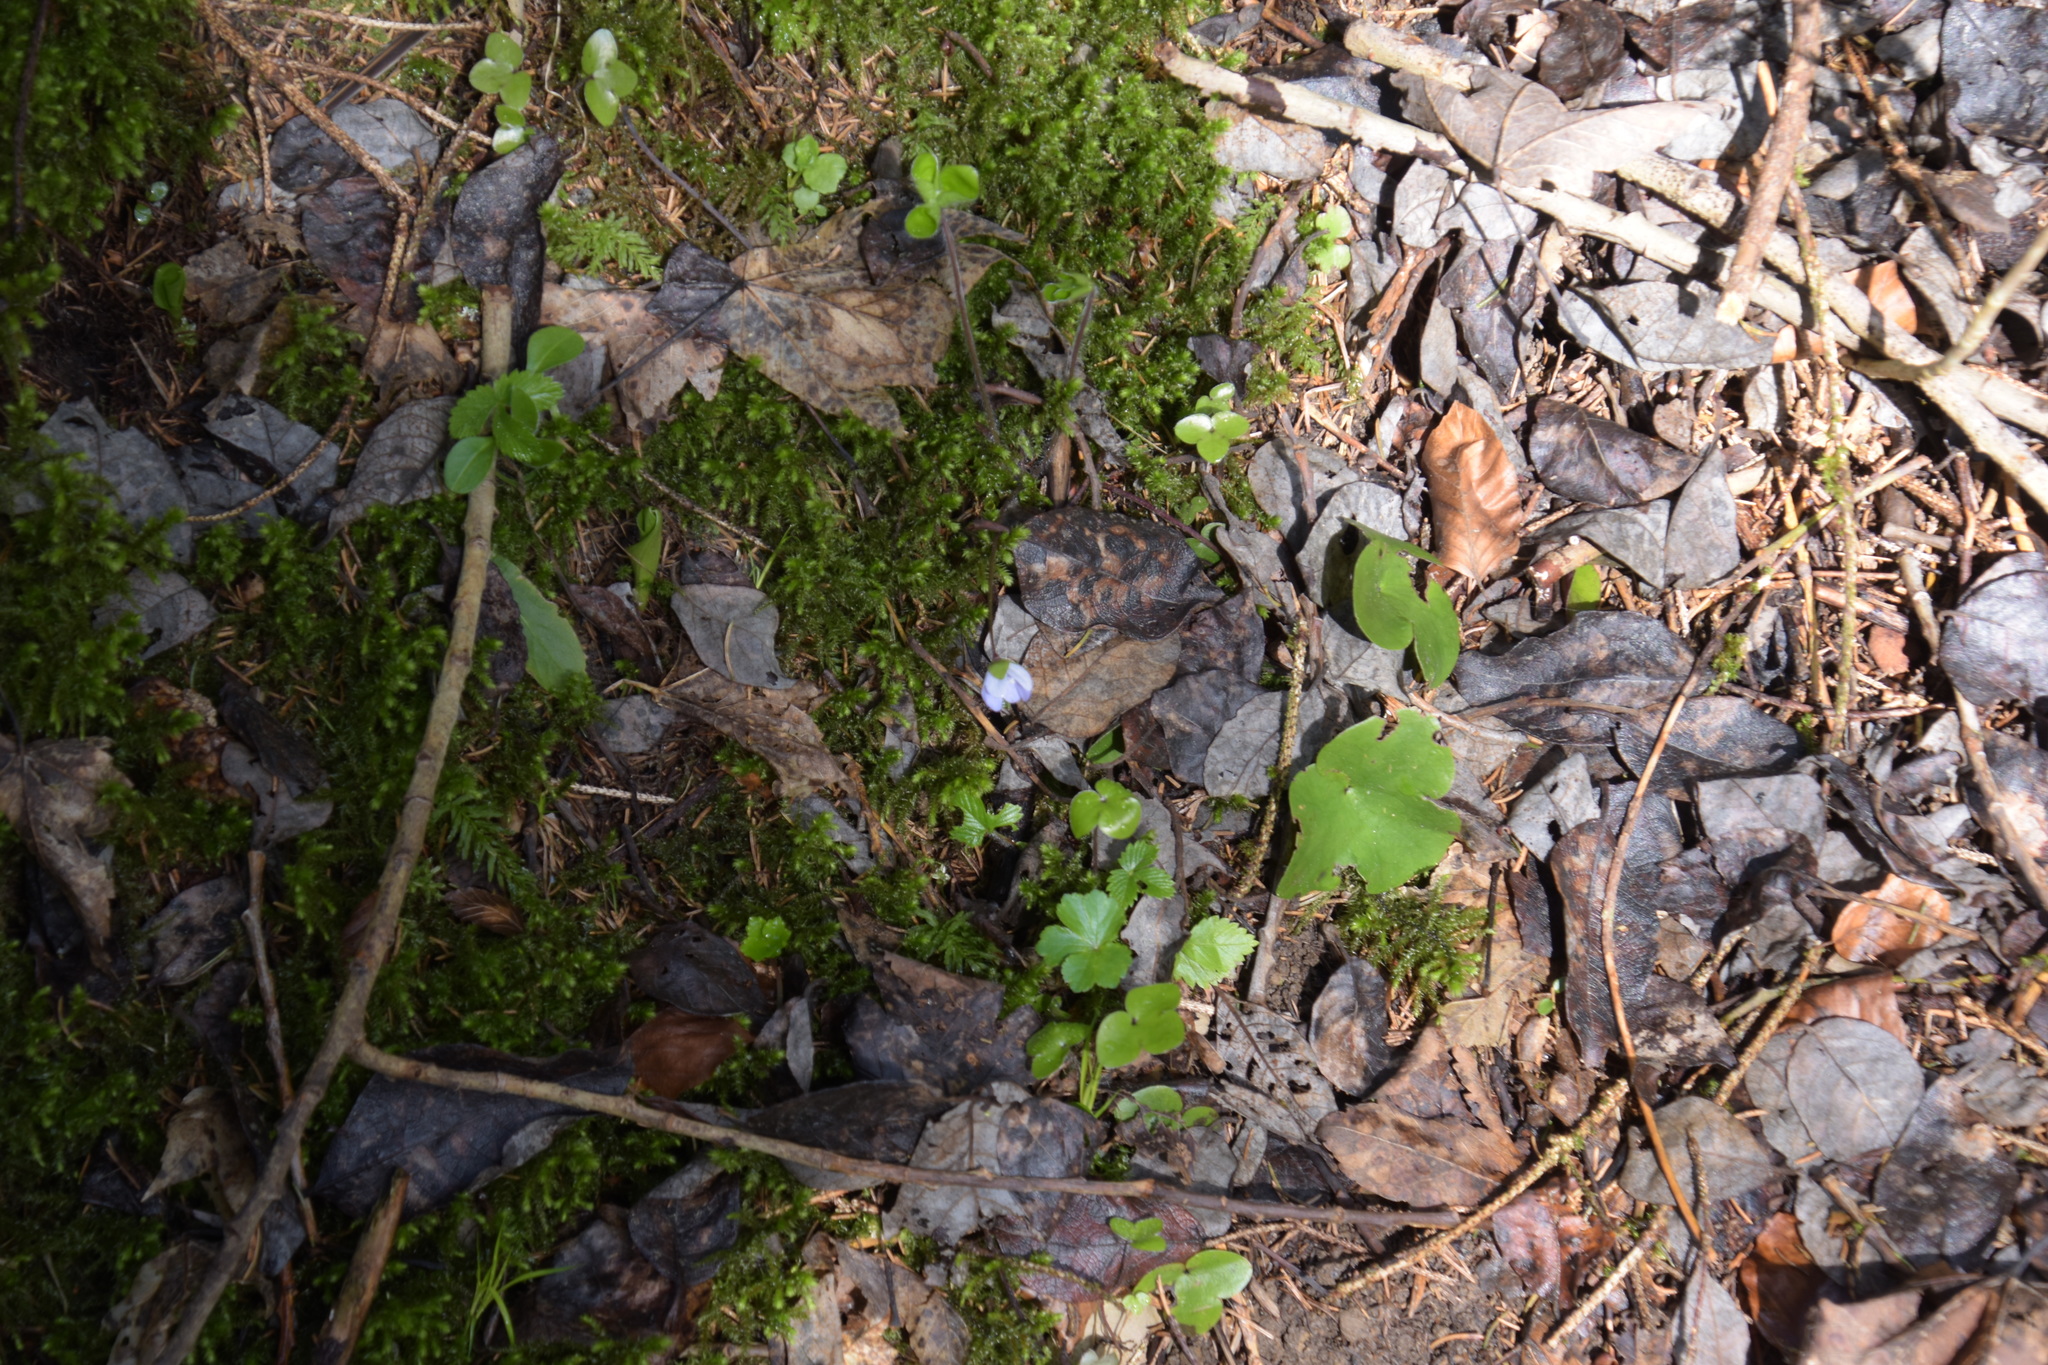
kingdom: Plantae
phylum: Tracheophyta
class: Magnoliopsida
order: Ranunculales
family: Ranunculaceae
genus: Hepatica
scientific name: Hepatica nobilis
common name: Liverleaf
